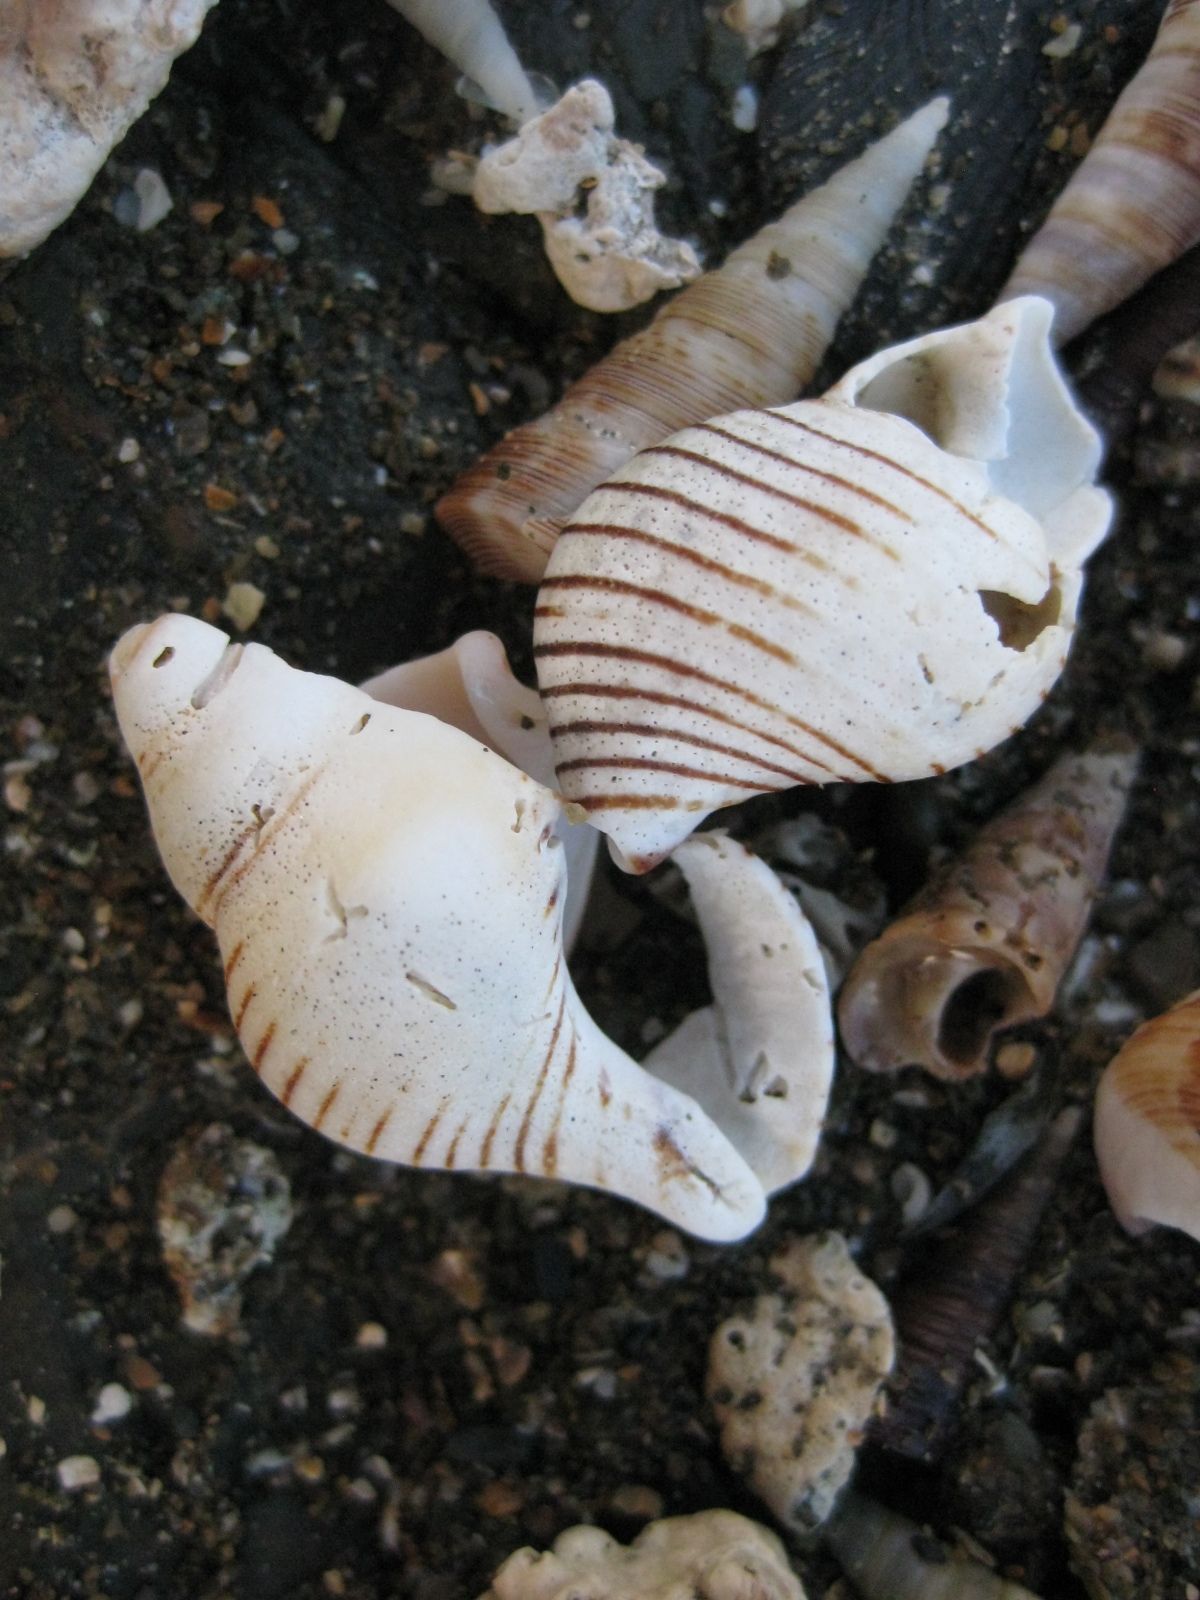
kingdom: Animalia
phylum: Mollusca
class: Gastropoda
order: Neogastropoda
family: Tudiclidae
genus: Buccinulum
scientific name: Buccinulum linea
